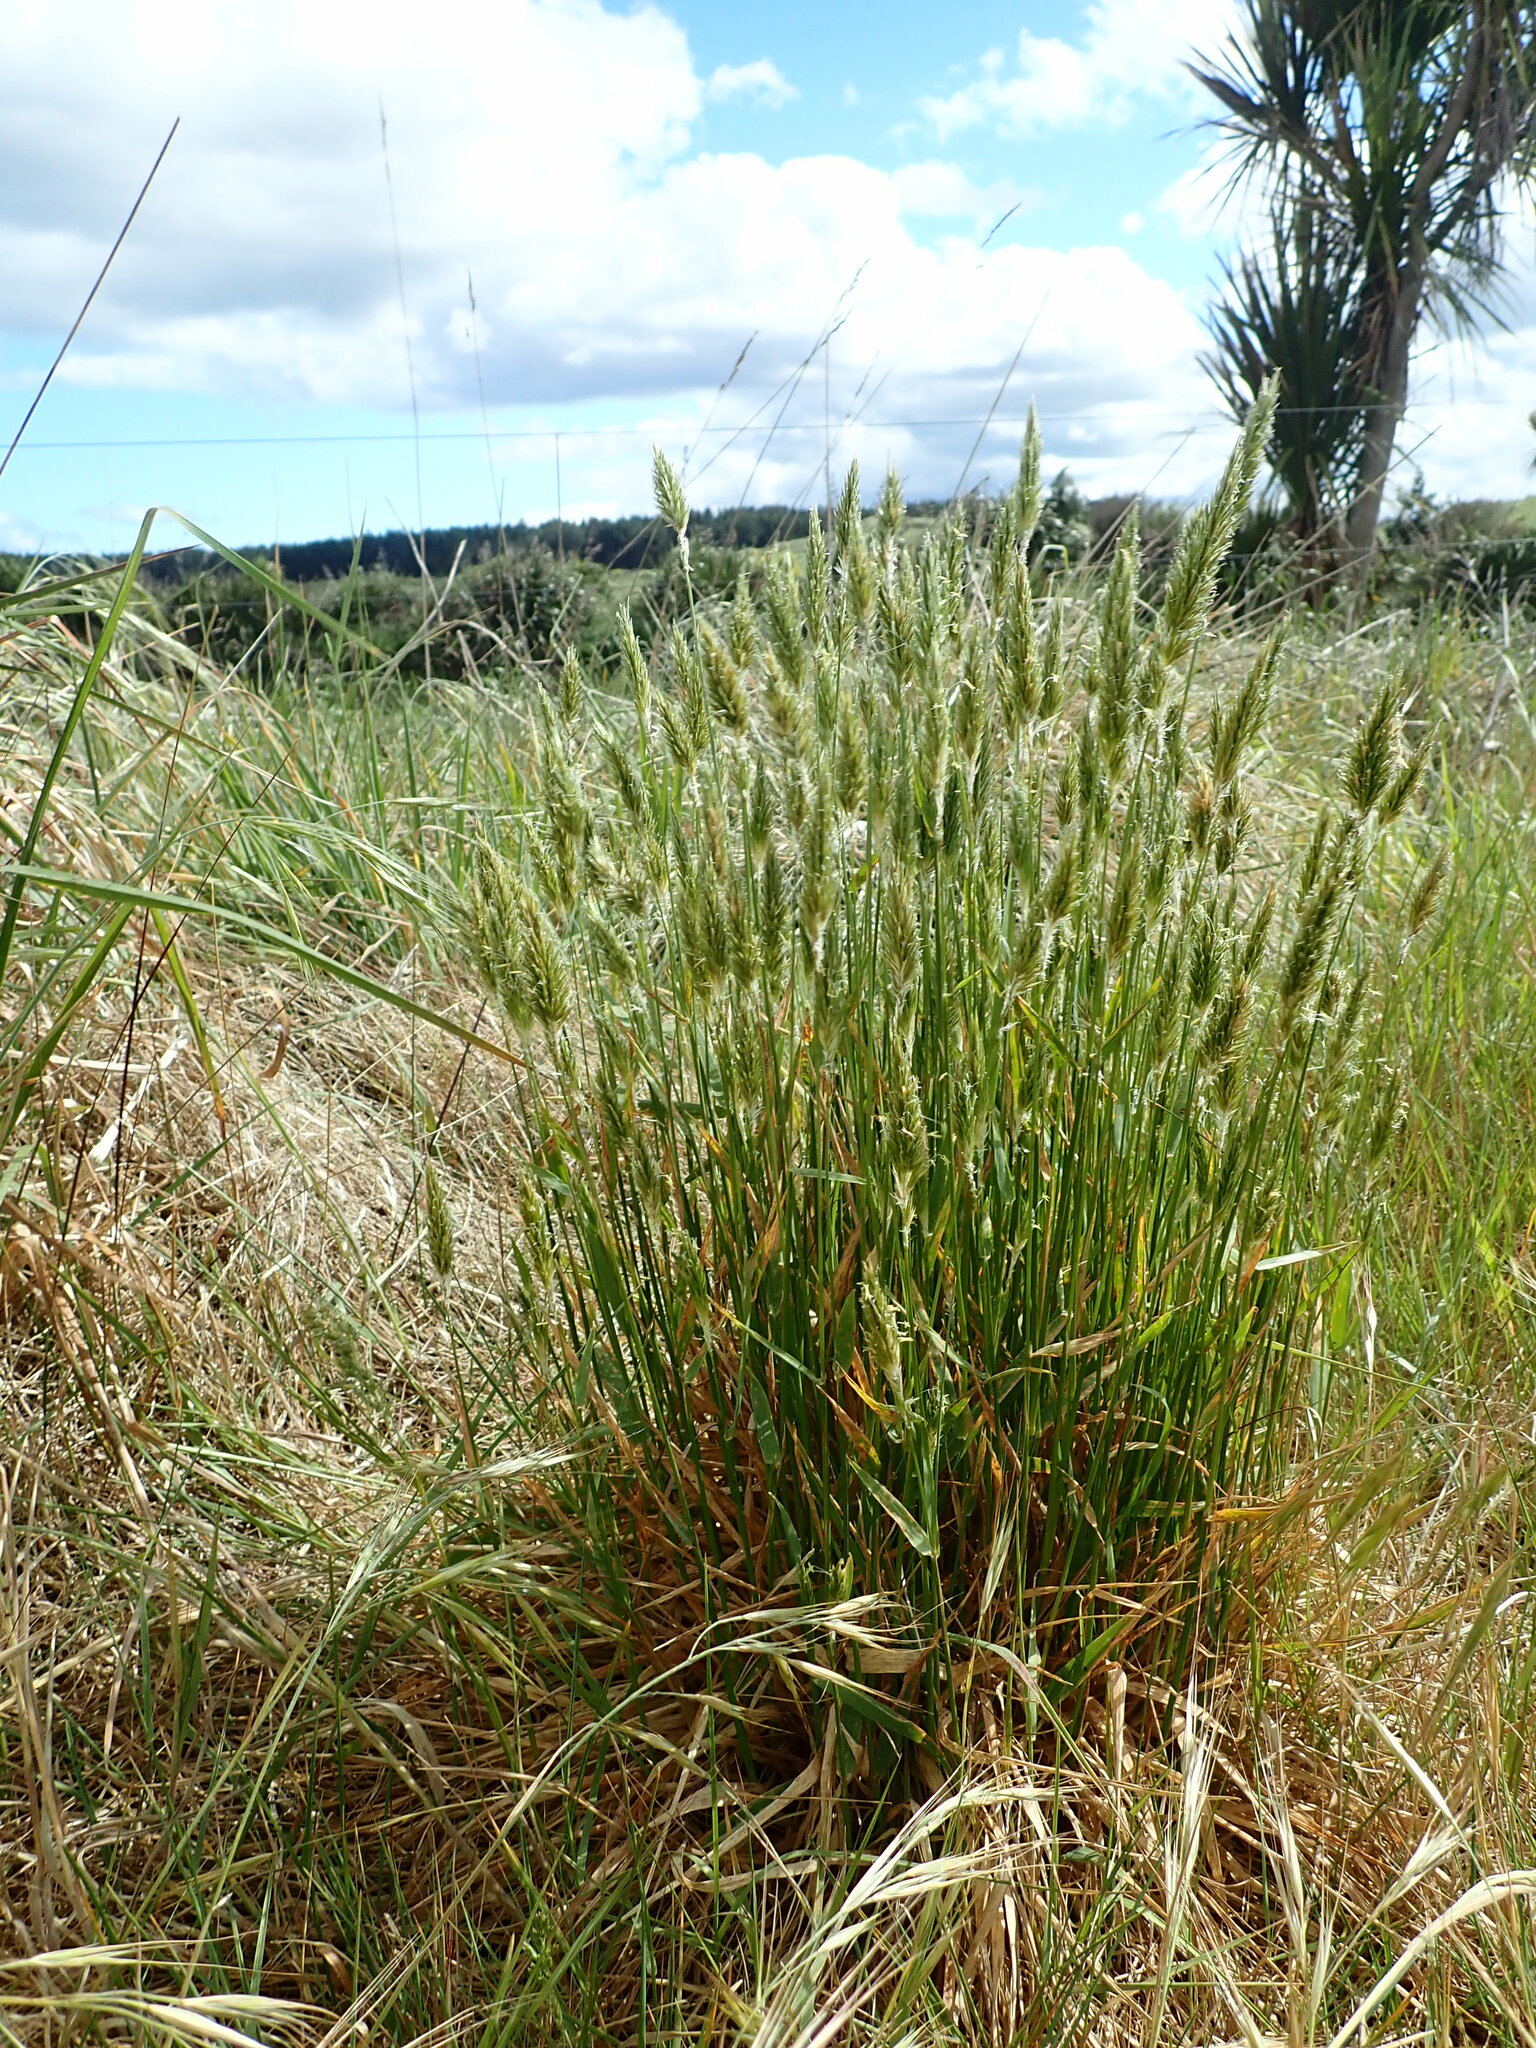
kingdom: Plantae
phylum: Tracheophyta
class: Liliopsida
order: Poales
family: Poaceae
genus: Anthoxanthum
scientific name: Anthoxanthum odoratum
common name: Sweet vernalgrass
